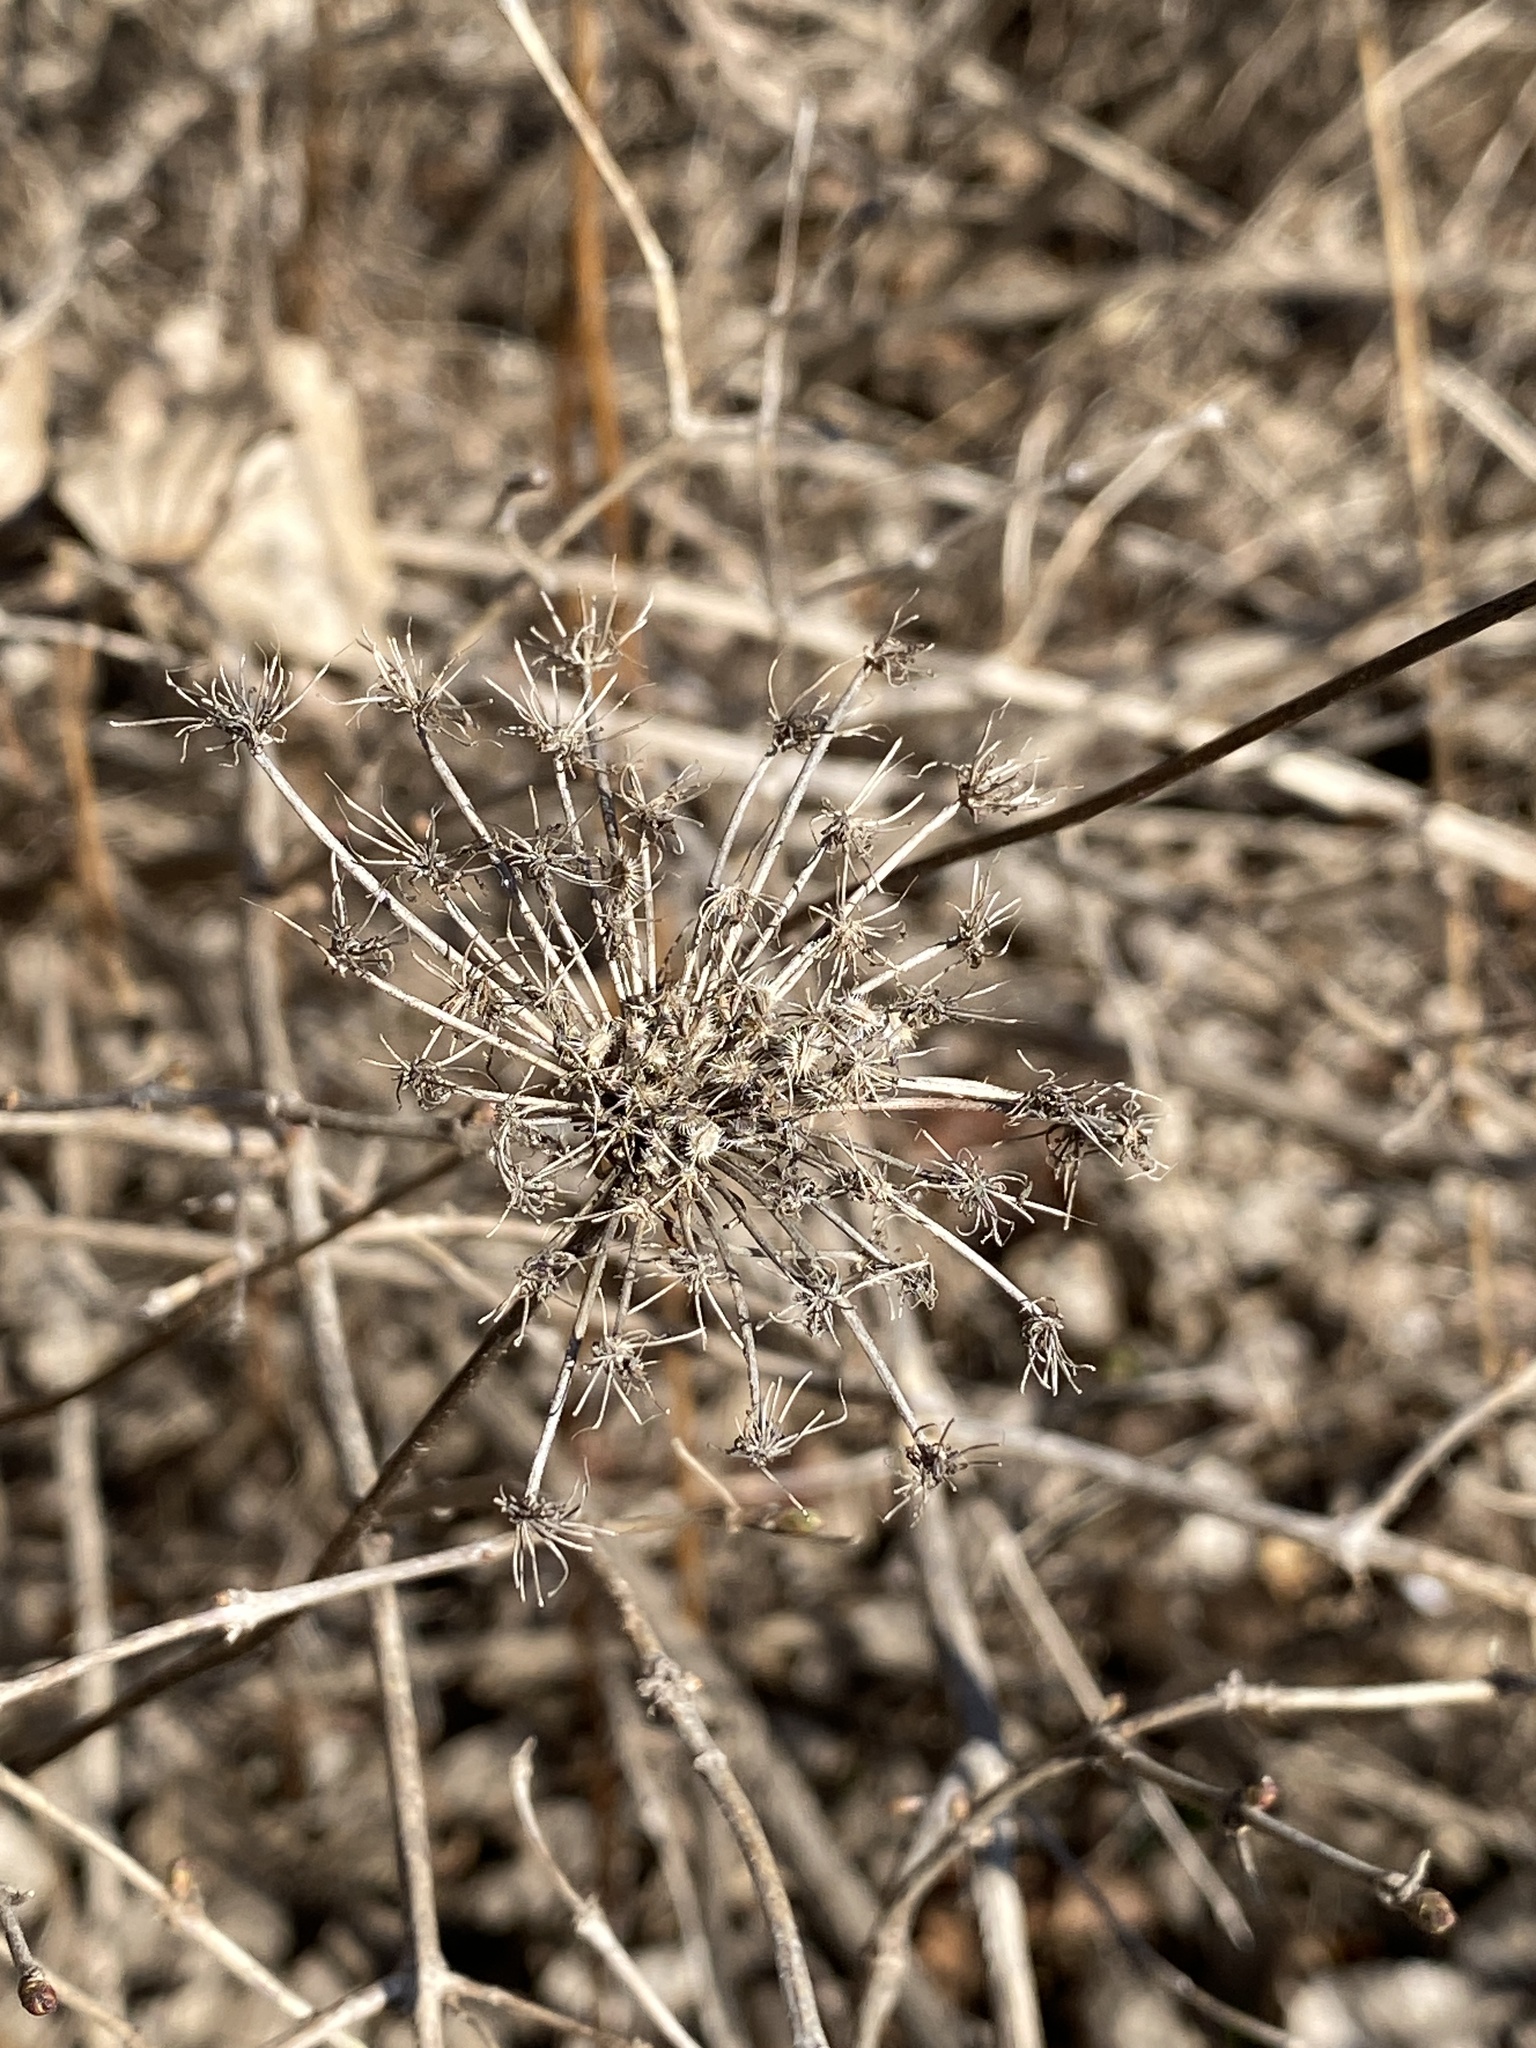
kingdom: Plantae
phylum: Tracheophyta
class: Magnoliopsida
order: Apiales
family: Apiaceae
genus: Daucus
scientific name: Daucus carota
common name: Wild carrot
